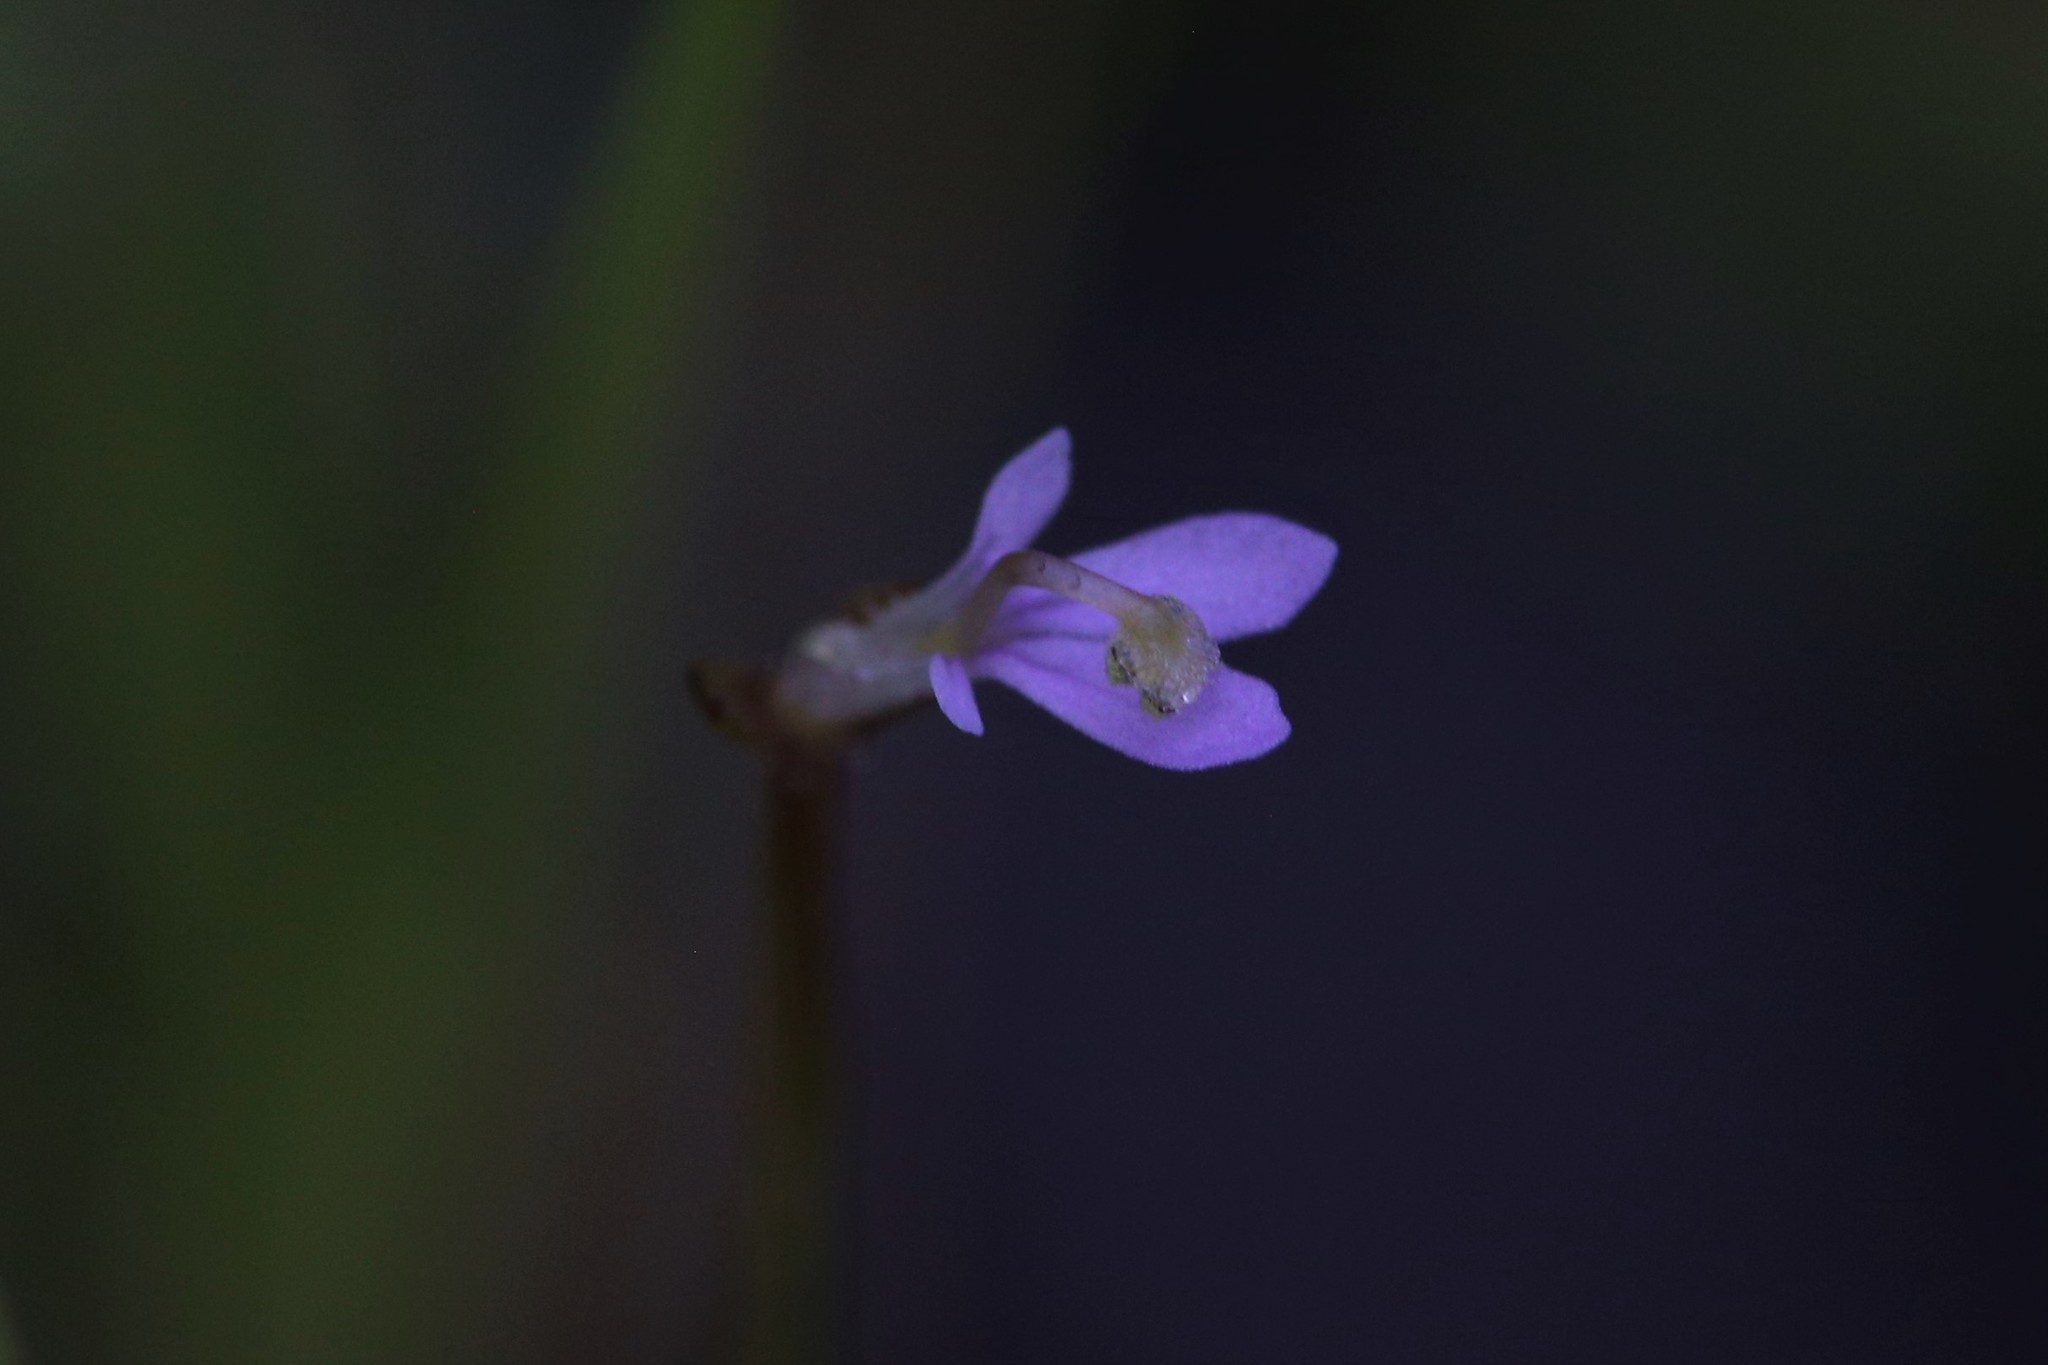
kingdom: Plantae
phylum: Tracheophyta
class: Magnoliopsida
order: Asterales
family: Stylidiaceae
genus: Stylidium
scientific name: Stylidium elachophyllum
